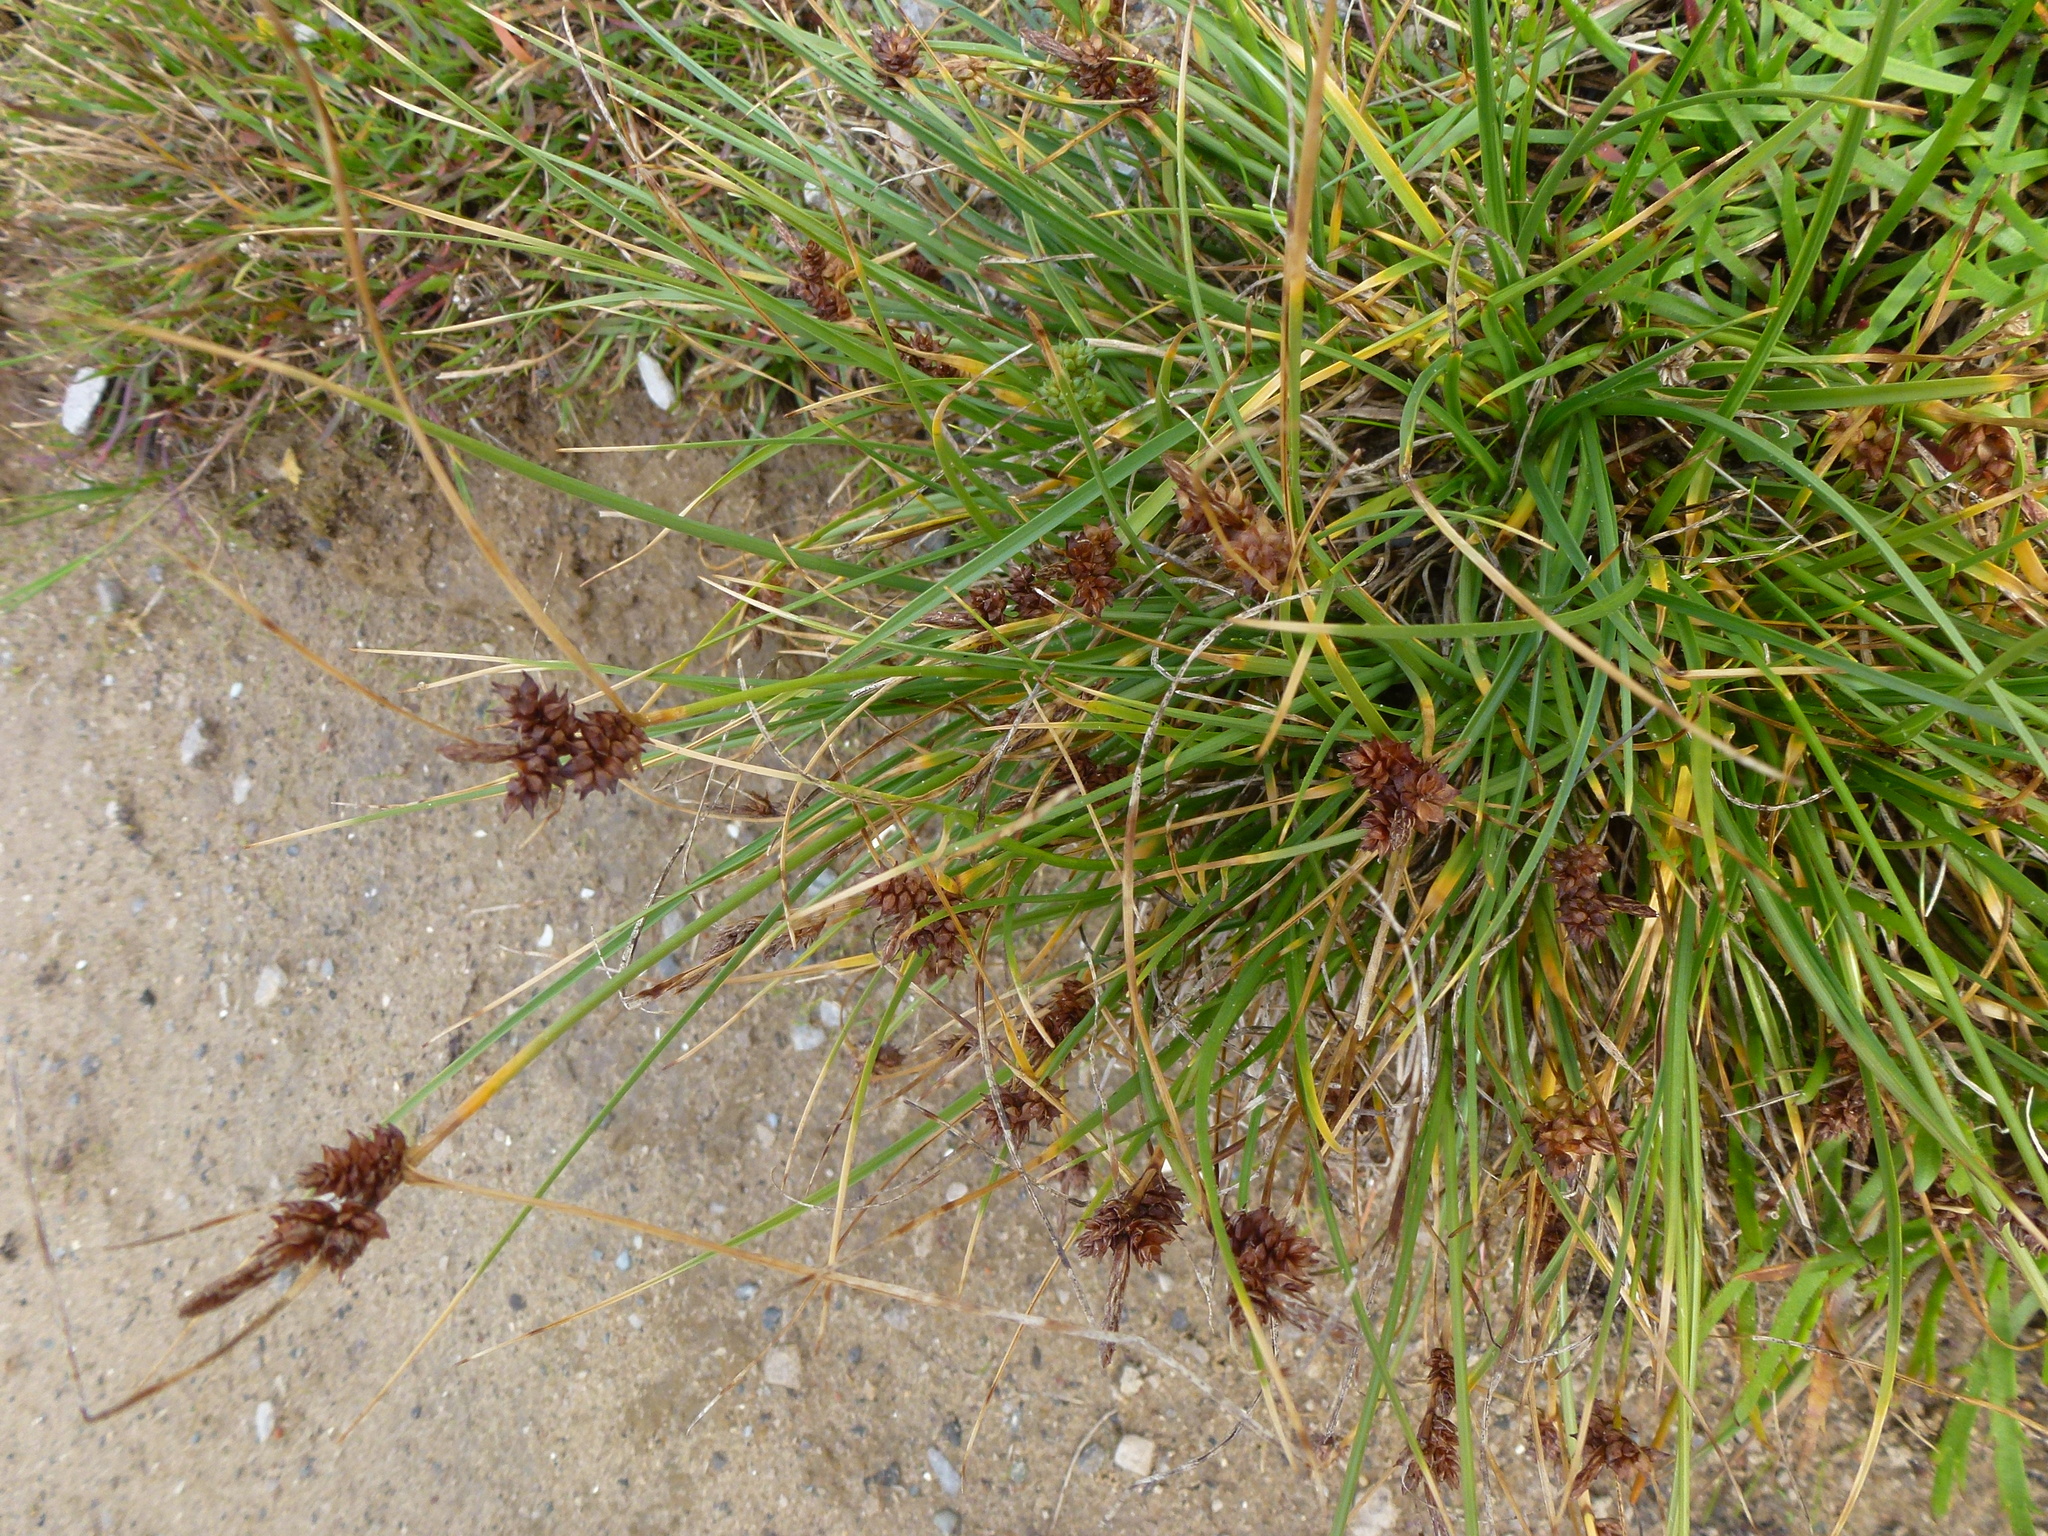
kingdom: Plantae
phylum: Tracheophyta
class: Liliopsida
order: Poales
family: Cyperaceae
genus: Carex
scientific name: Carex extensa
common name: Long-bracted sedge
